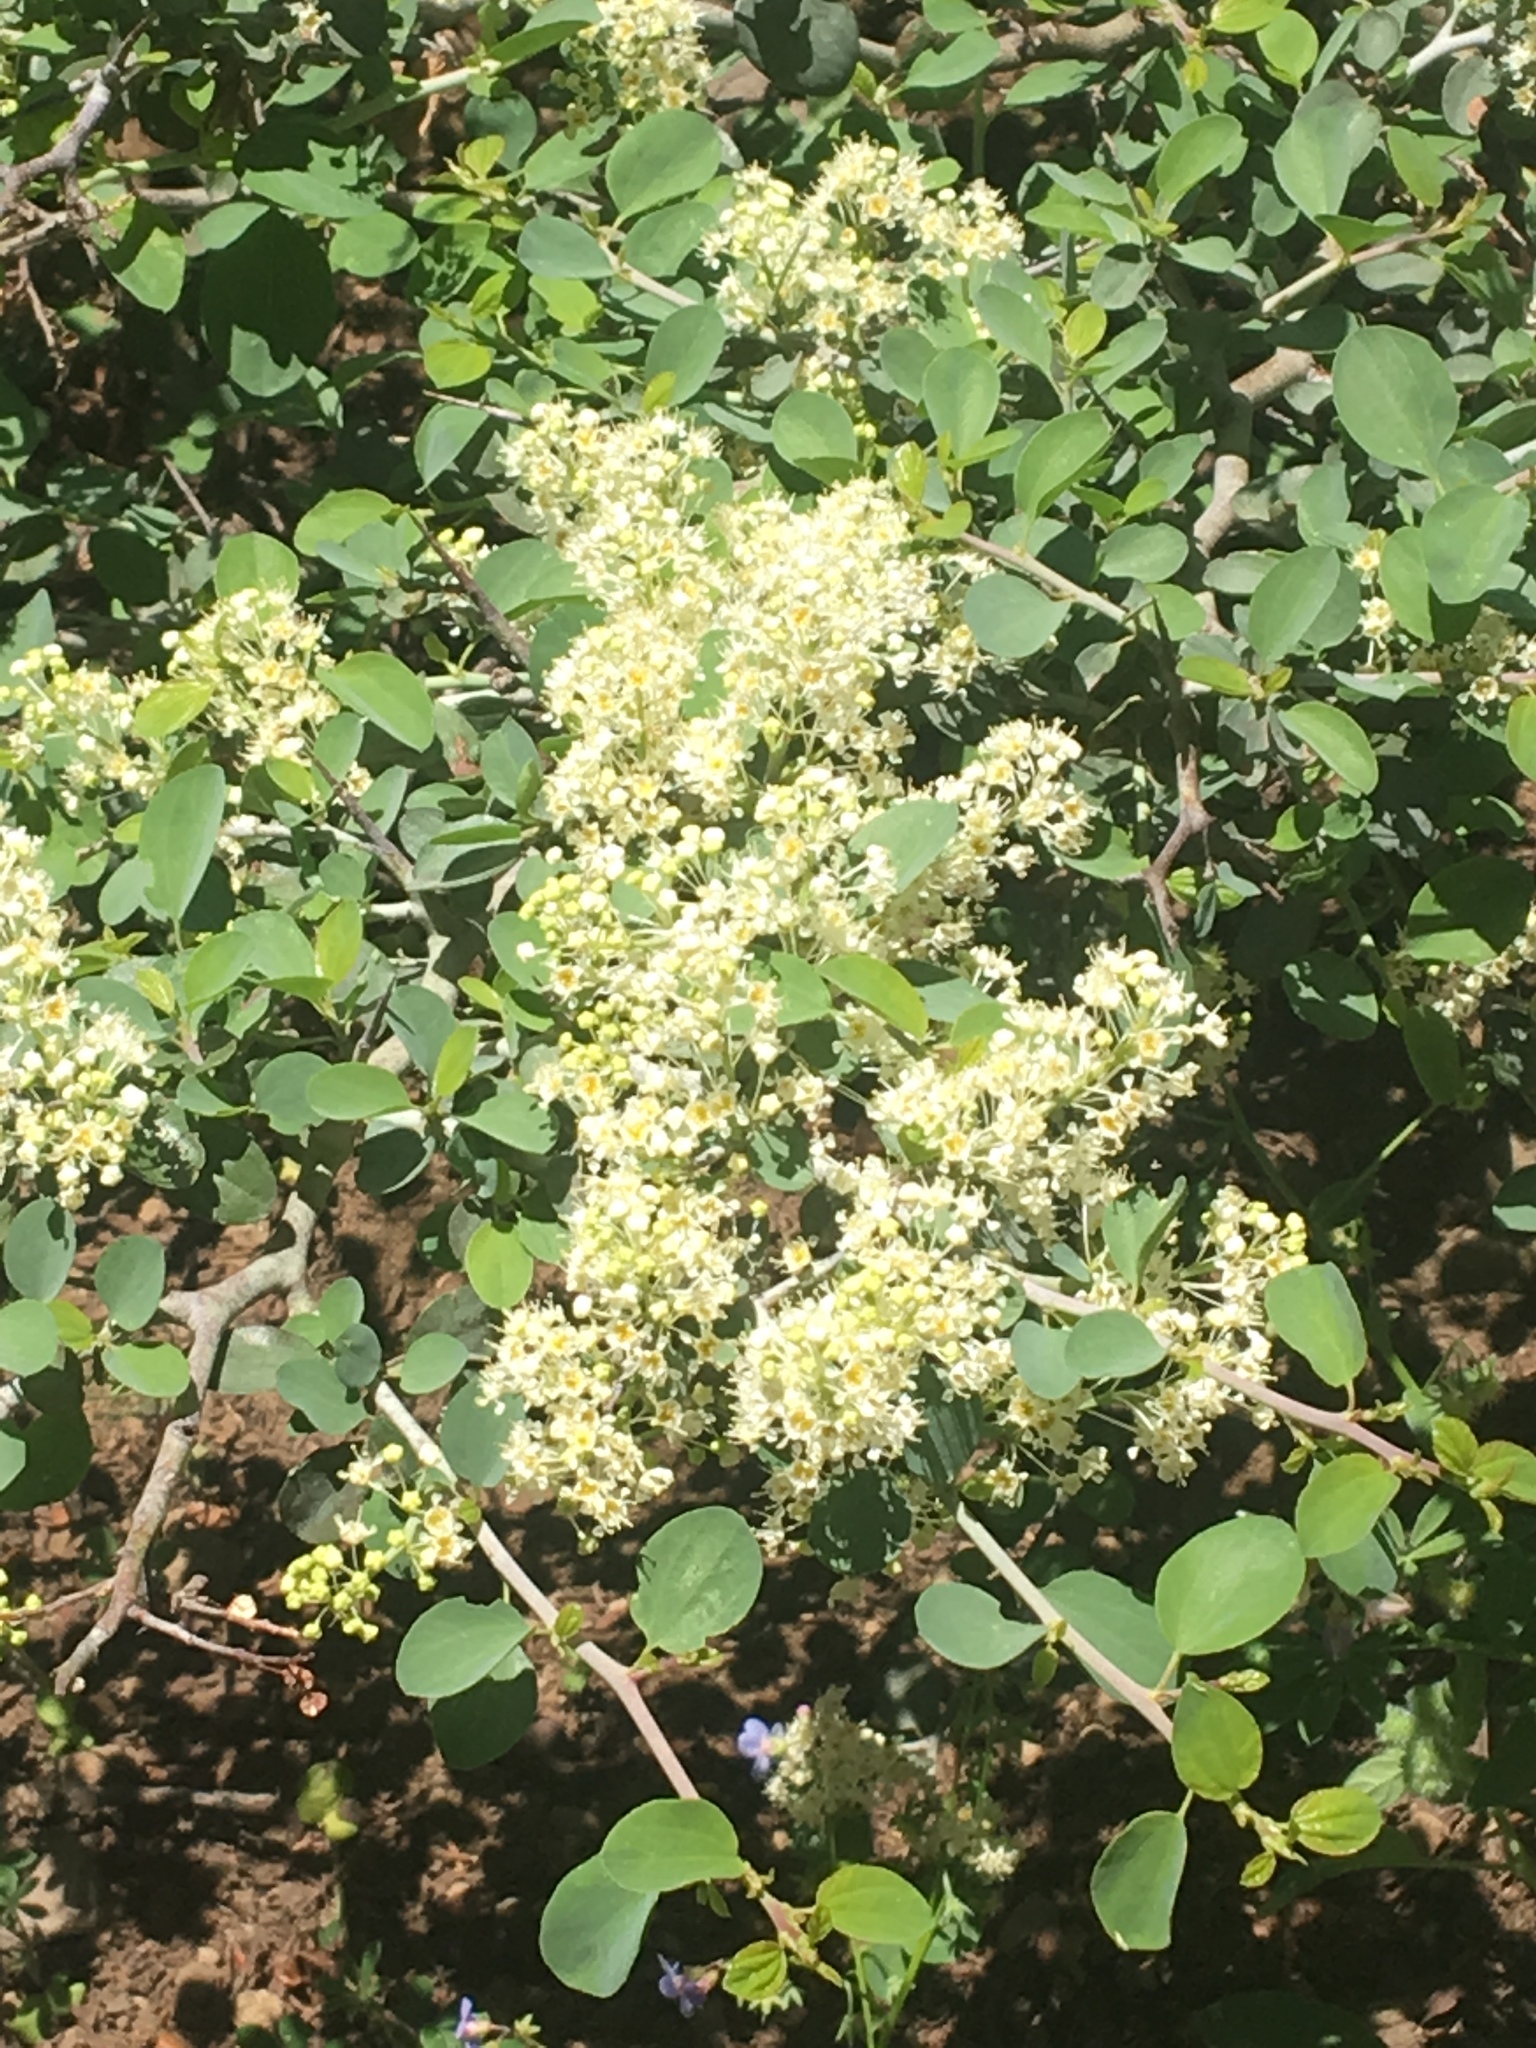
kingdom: Plantae
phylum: Tracheophyta
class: Magnoliopsida
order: Rosales
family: Rhamnaceae
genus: Ceanothus
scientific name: Ceanothus cordulatus
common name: Mountain whitethorn
